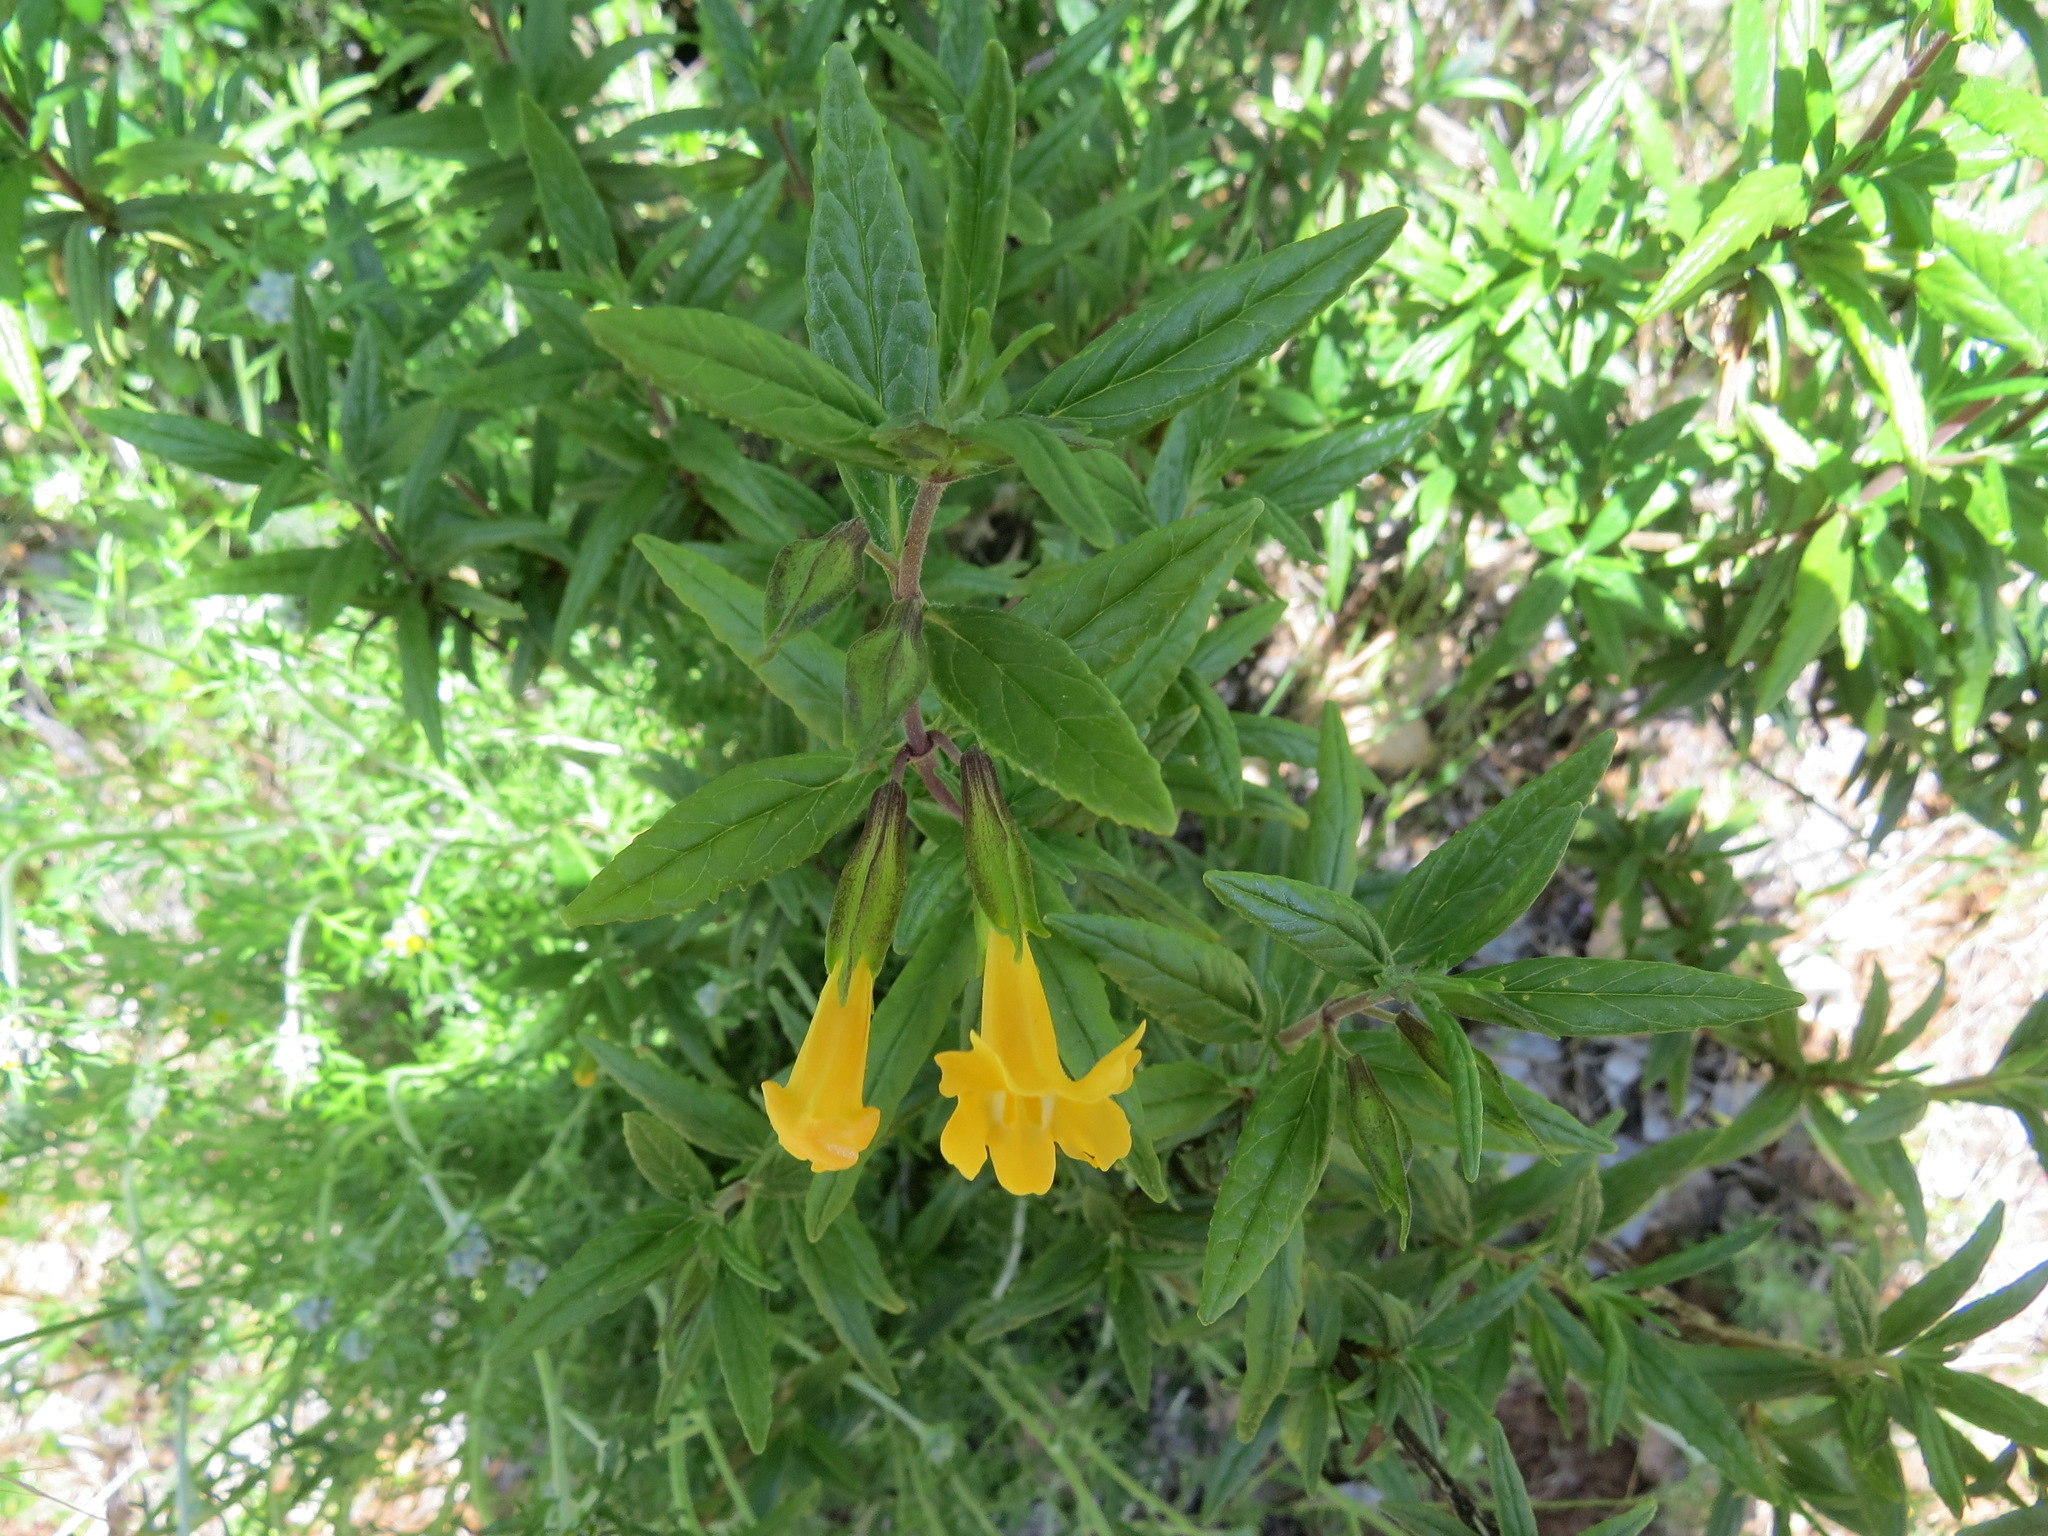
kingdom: Plantae
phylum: Tracheophyta
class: Magnoliopsida
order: Lamiales
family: Phrymaceae
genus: Diplacus
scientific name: Diplacus aurantiacus
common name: Bush monkey-flower
